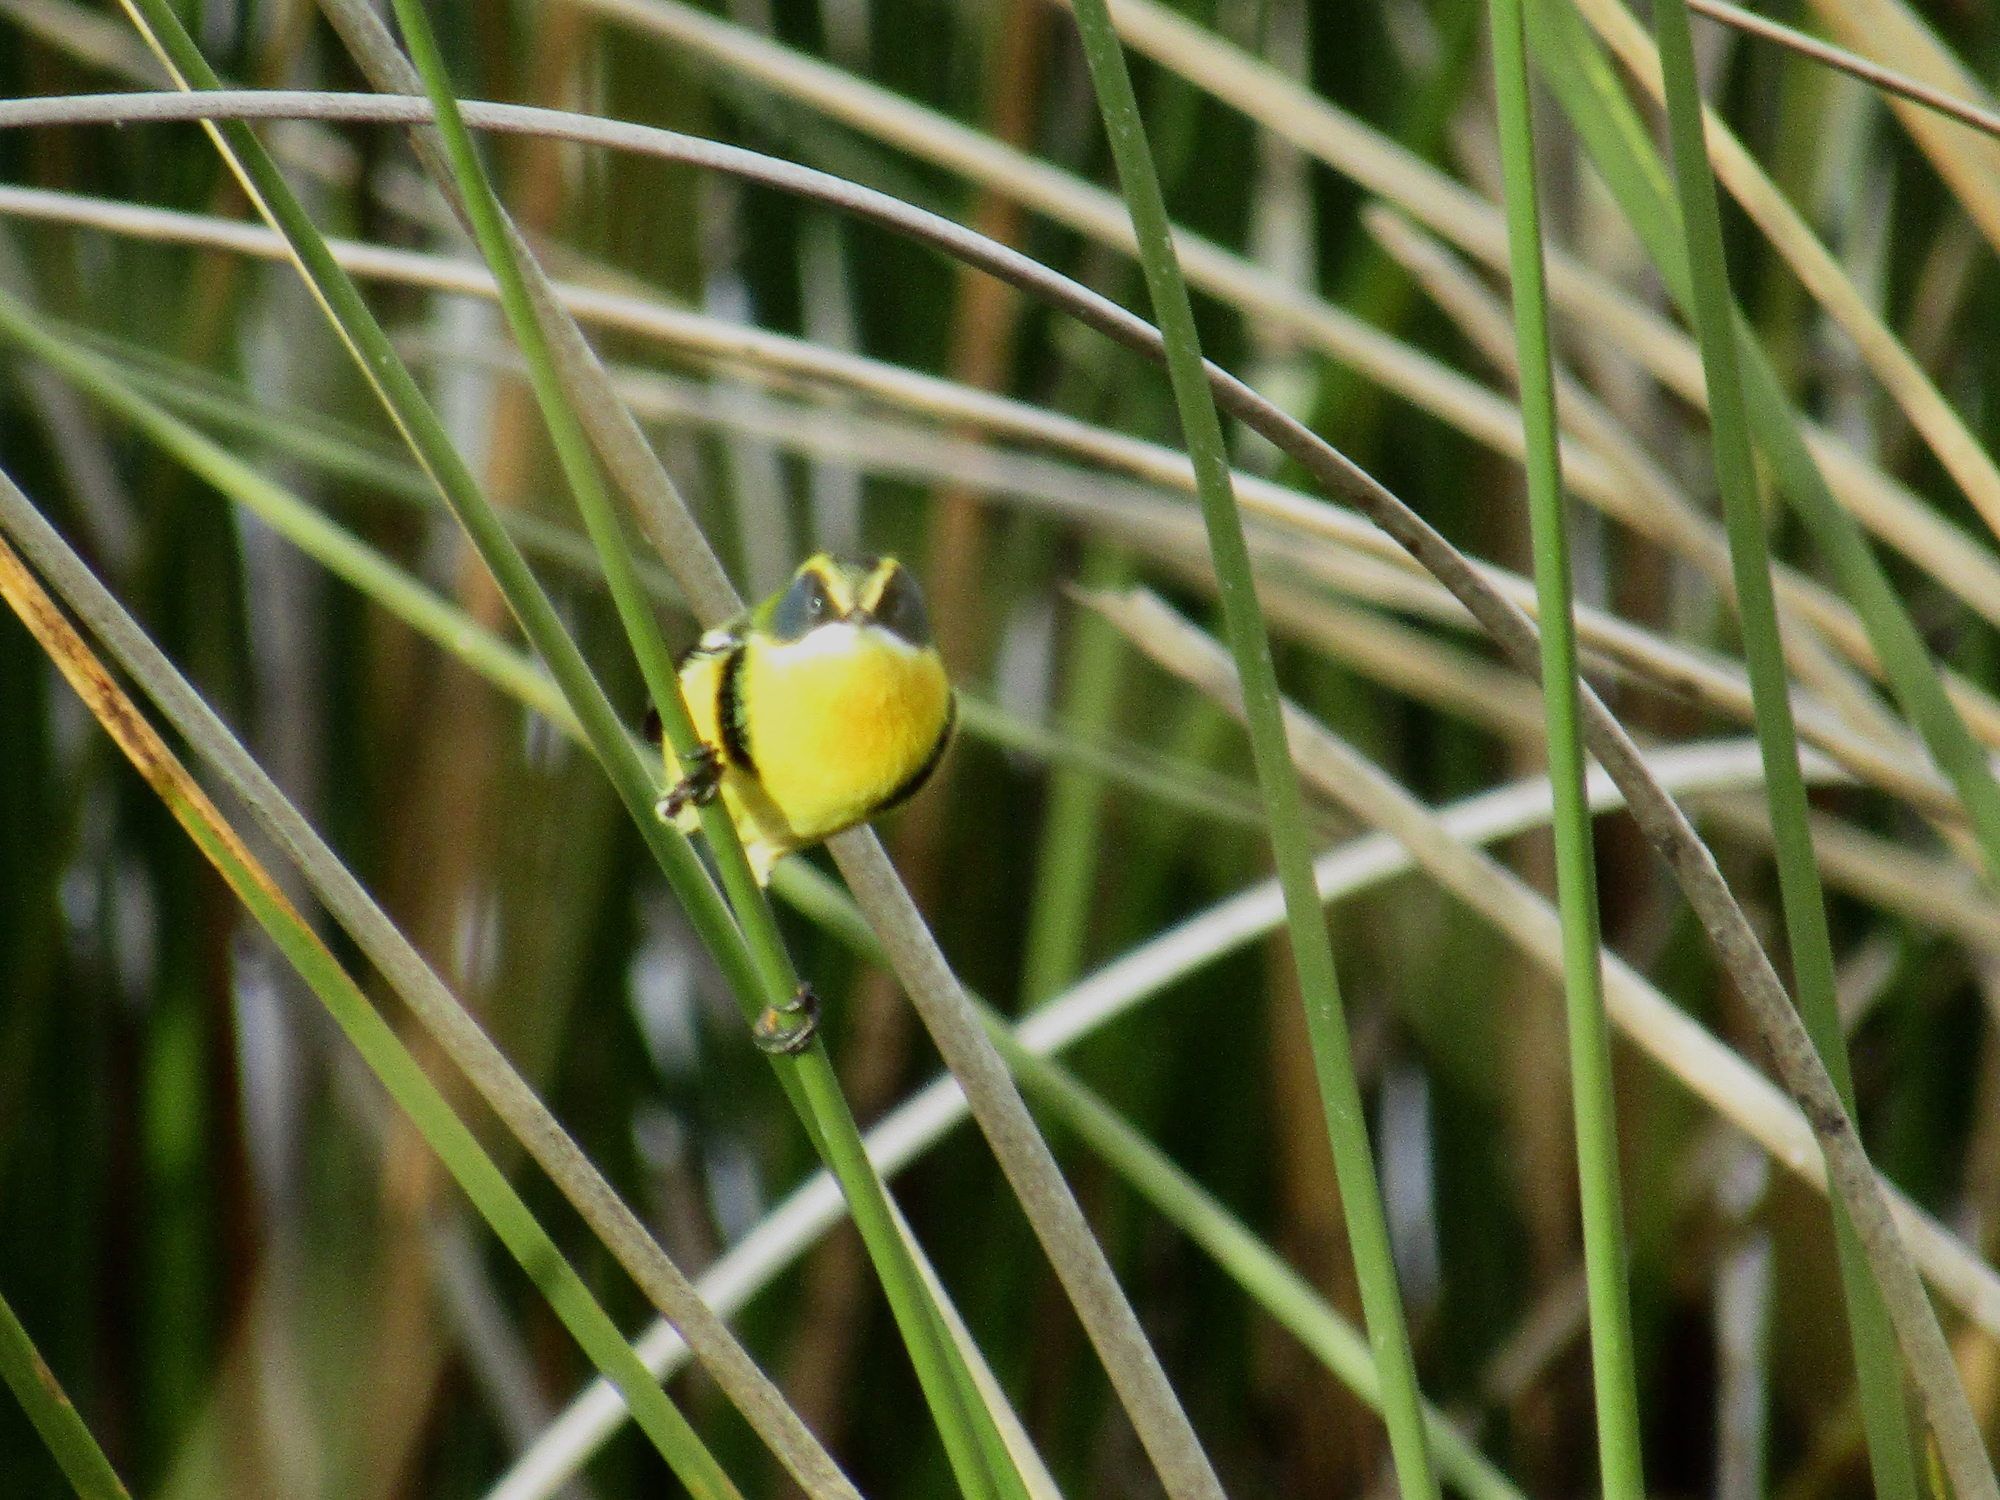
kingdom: Animalia
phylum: Chordata
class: Aves
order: Passeriformes
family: Tyrannidae
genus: Tachuris
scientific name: Tachuris rubrigastra
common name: Many-colored rush tyrant
